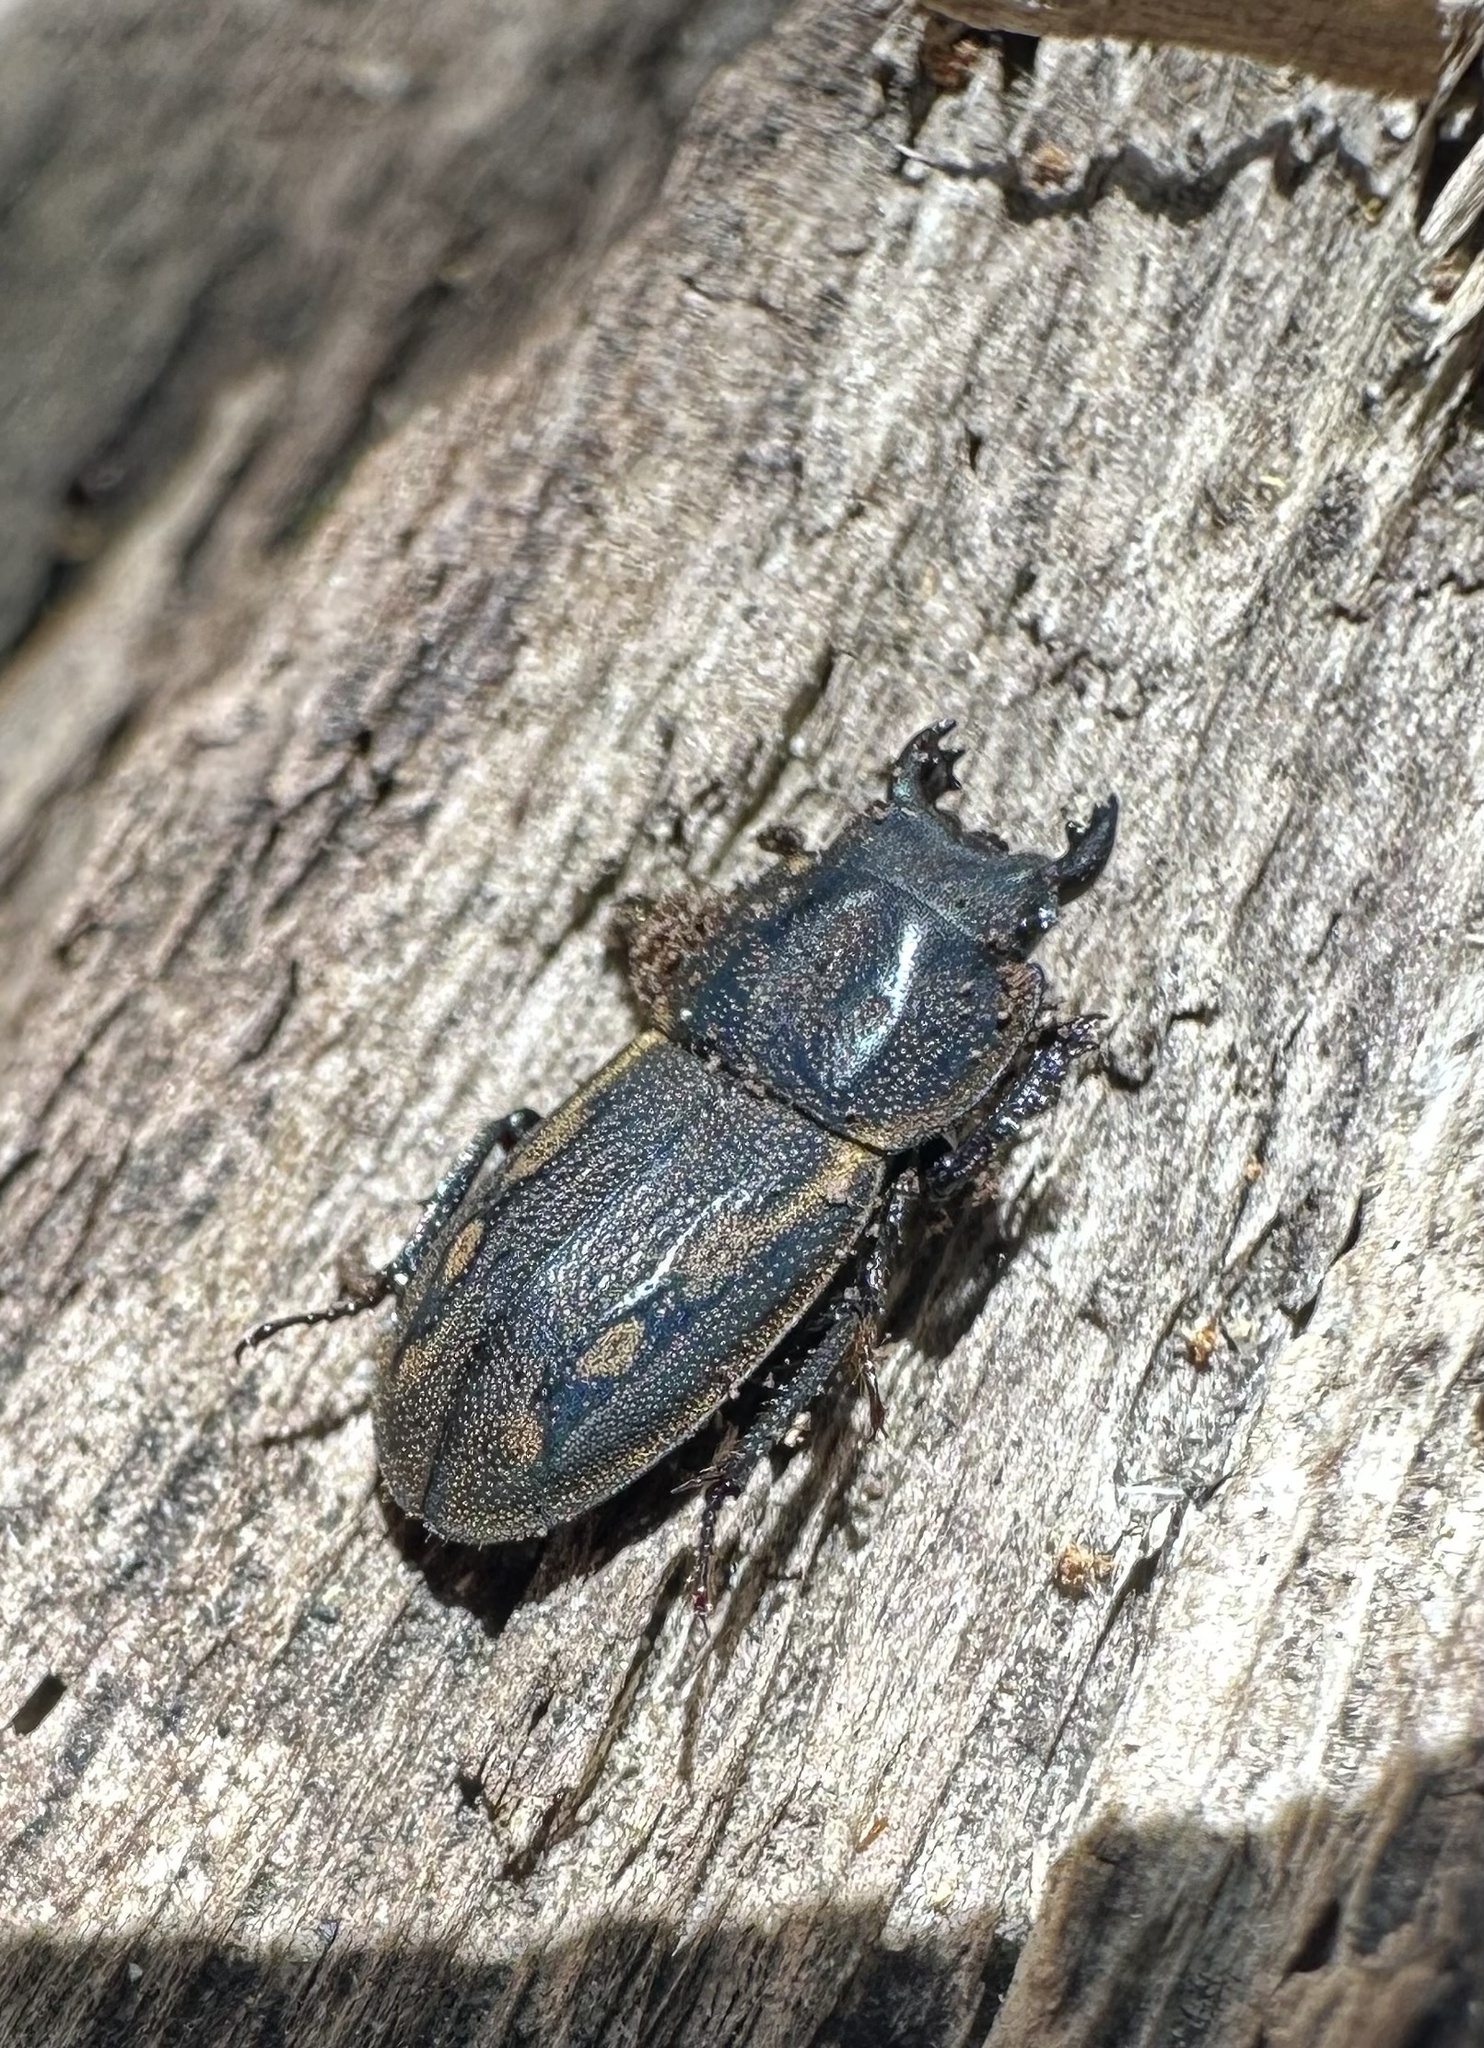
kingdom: Animalia
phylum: Arthropoda
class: Insecta
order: Coleoptera
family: Lucanidae
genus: Erichius
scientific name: Erichius calverti
